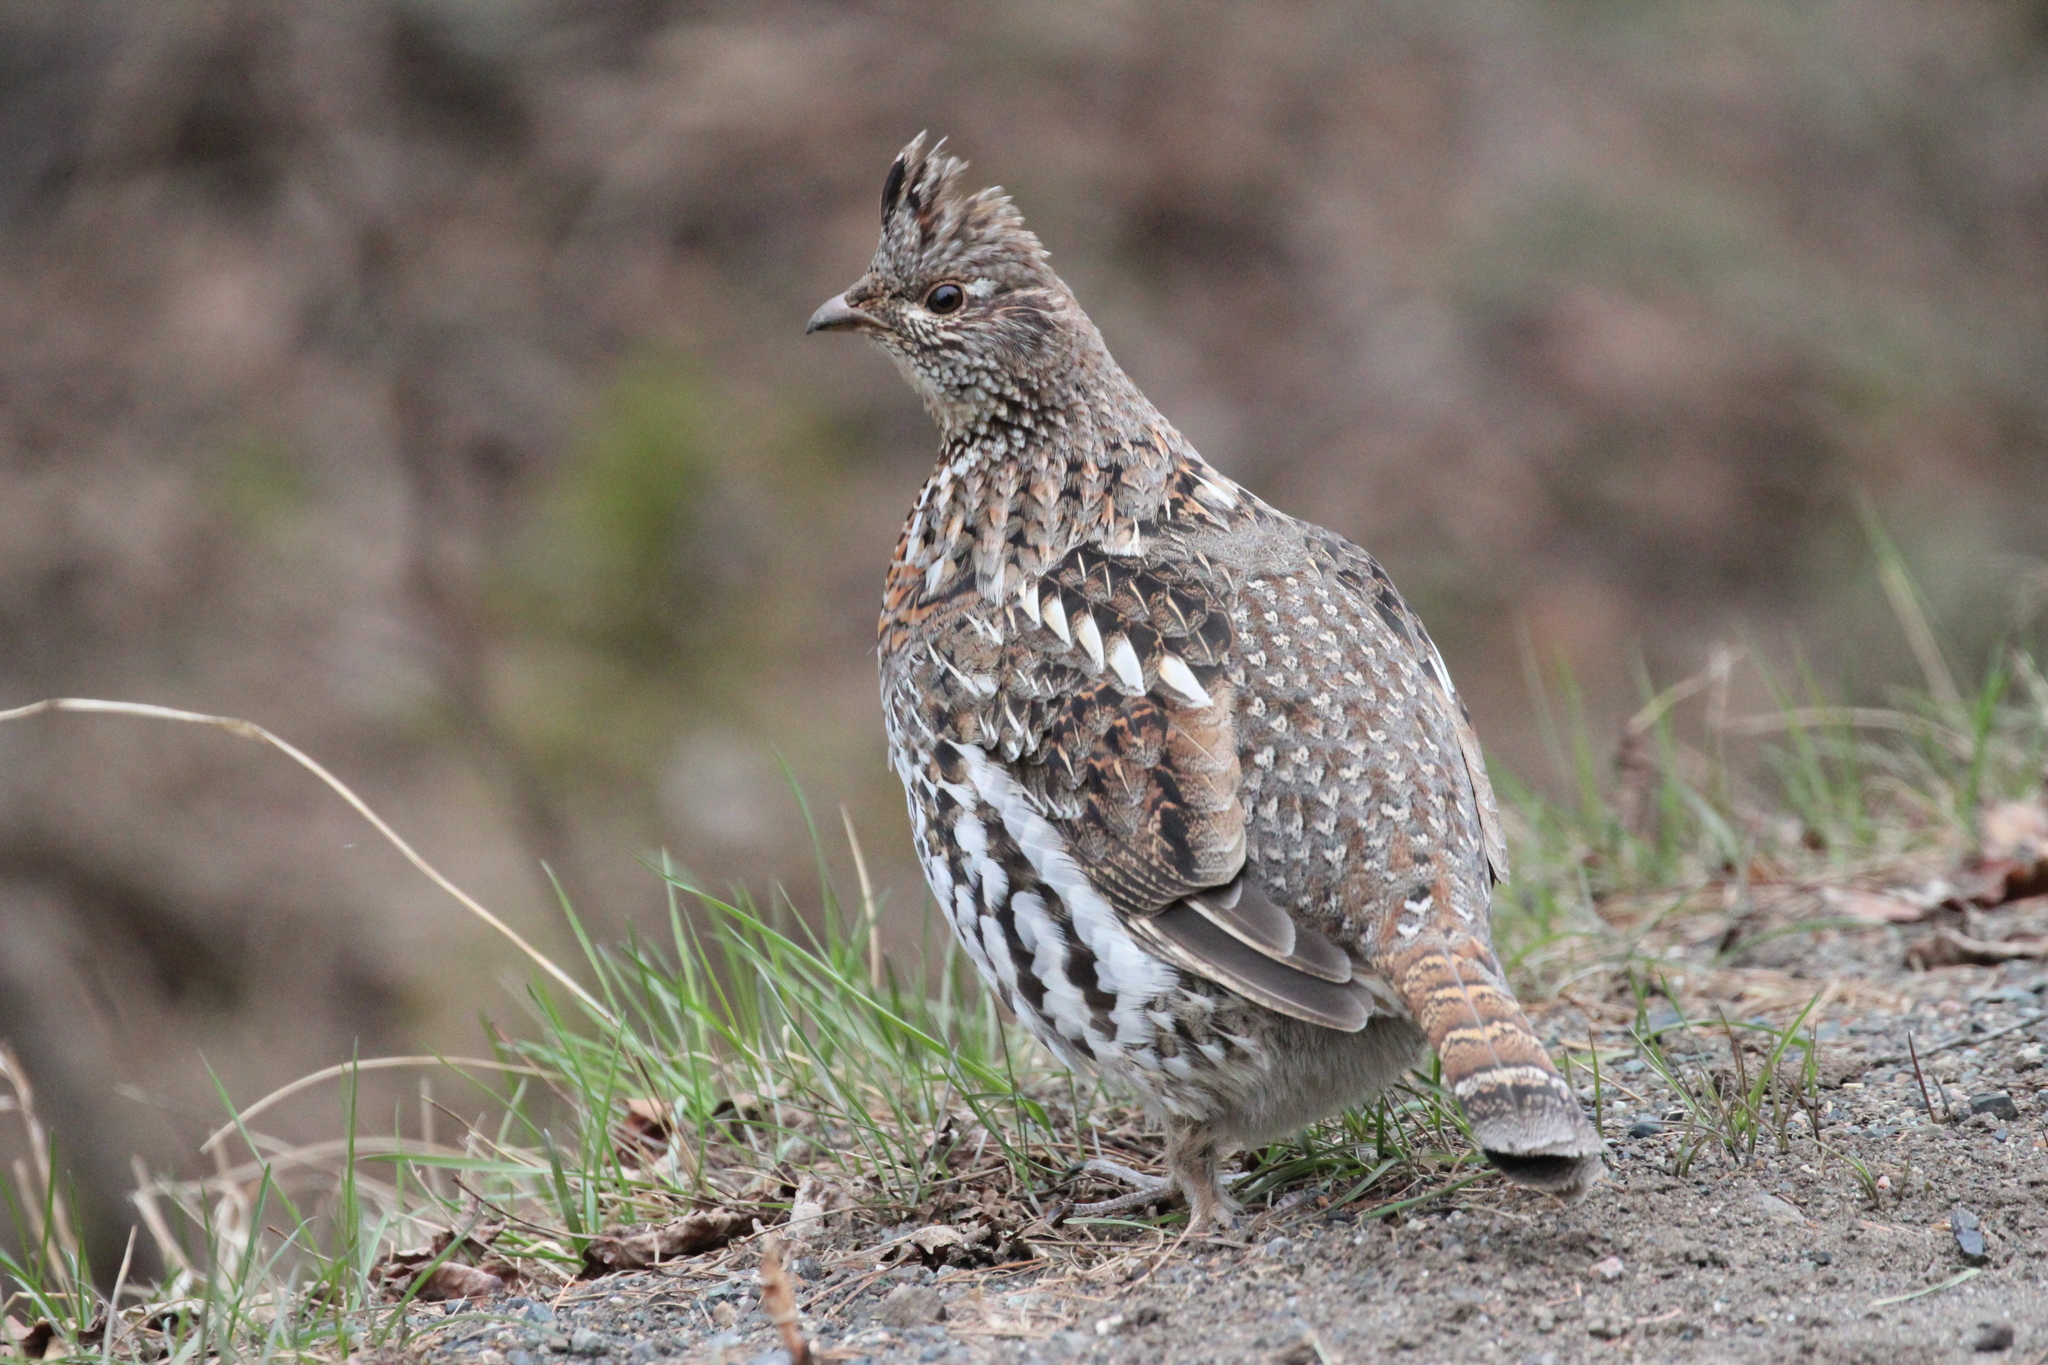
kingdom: Animalia
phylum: Chordata
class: Aves
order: Galliformes
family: Phasianidae
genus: Bonasa
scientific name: Bonasa umbellus
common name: Ruffed grouse
